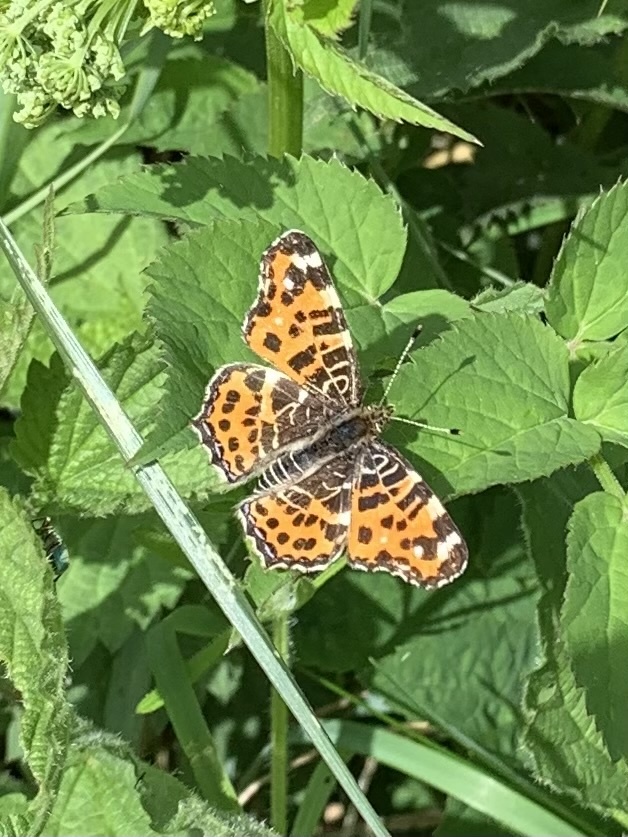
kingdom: Animalia
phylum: Arthropoda
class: Insecta
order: Lepidoptera
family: Nymphalidae
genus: Araschnia
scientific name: Araschnia levana
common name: Map butterfly
